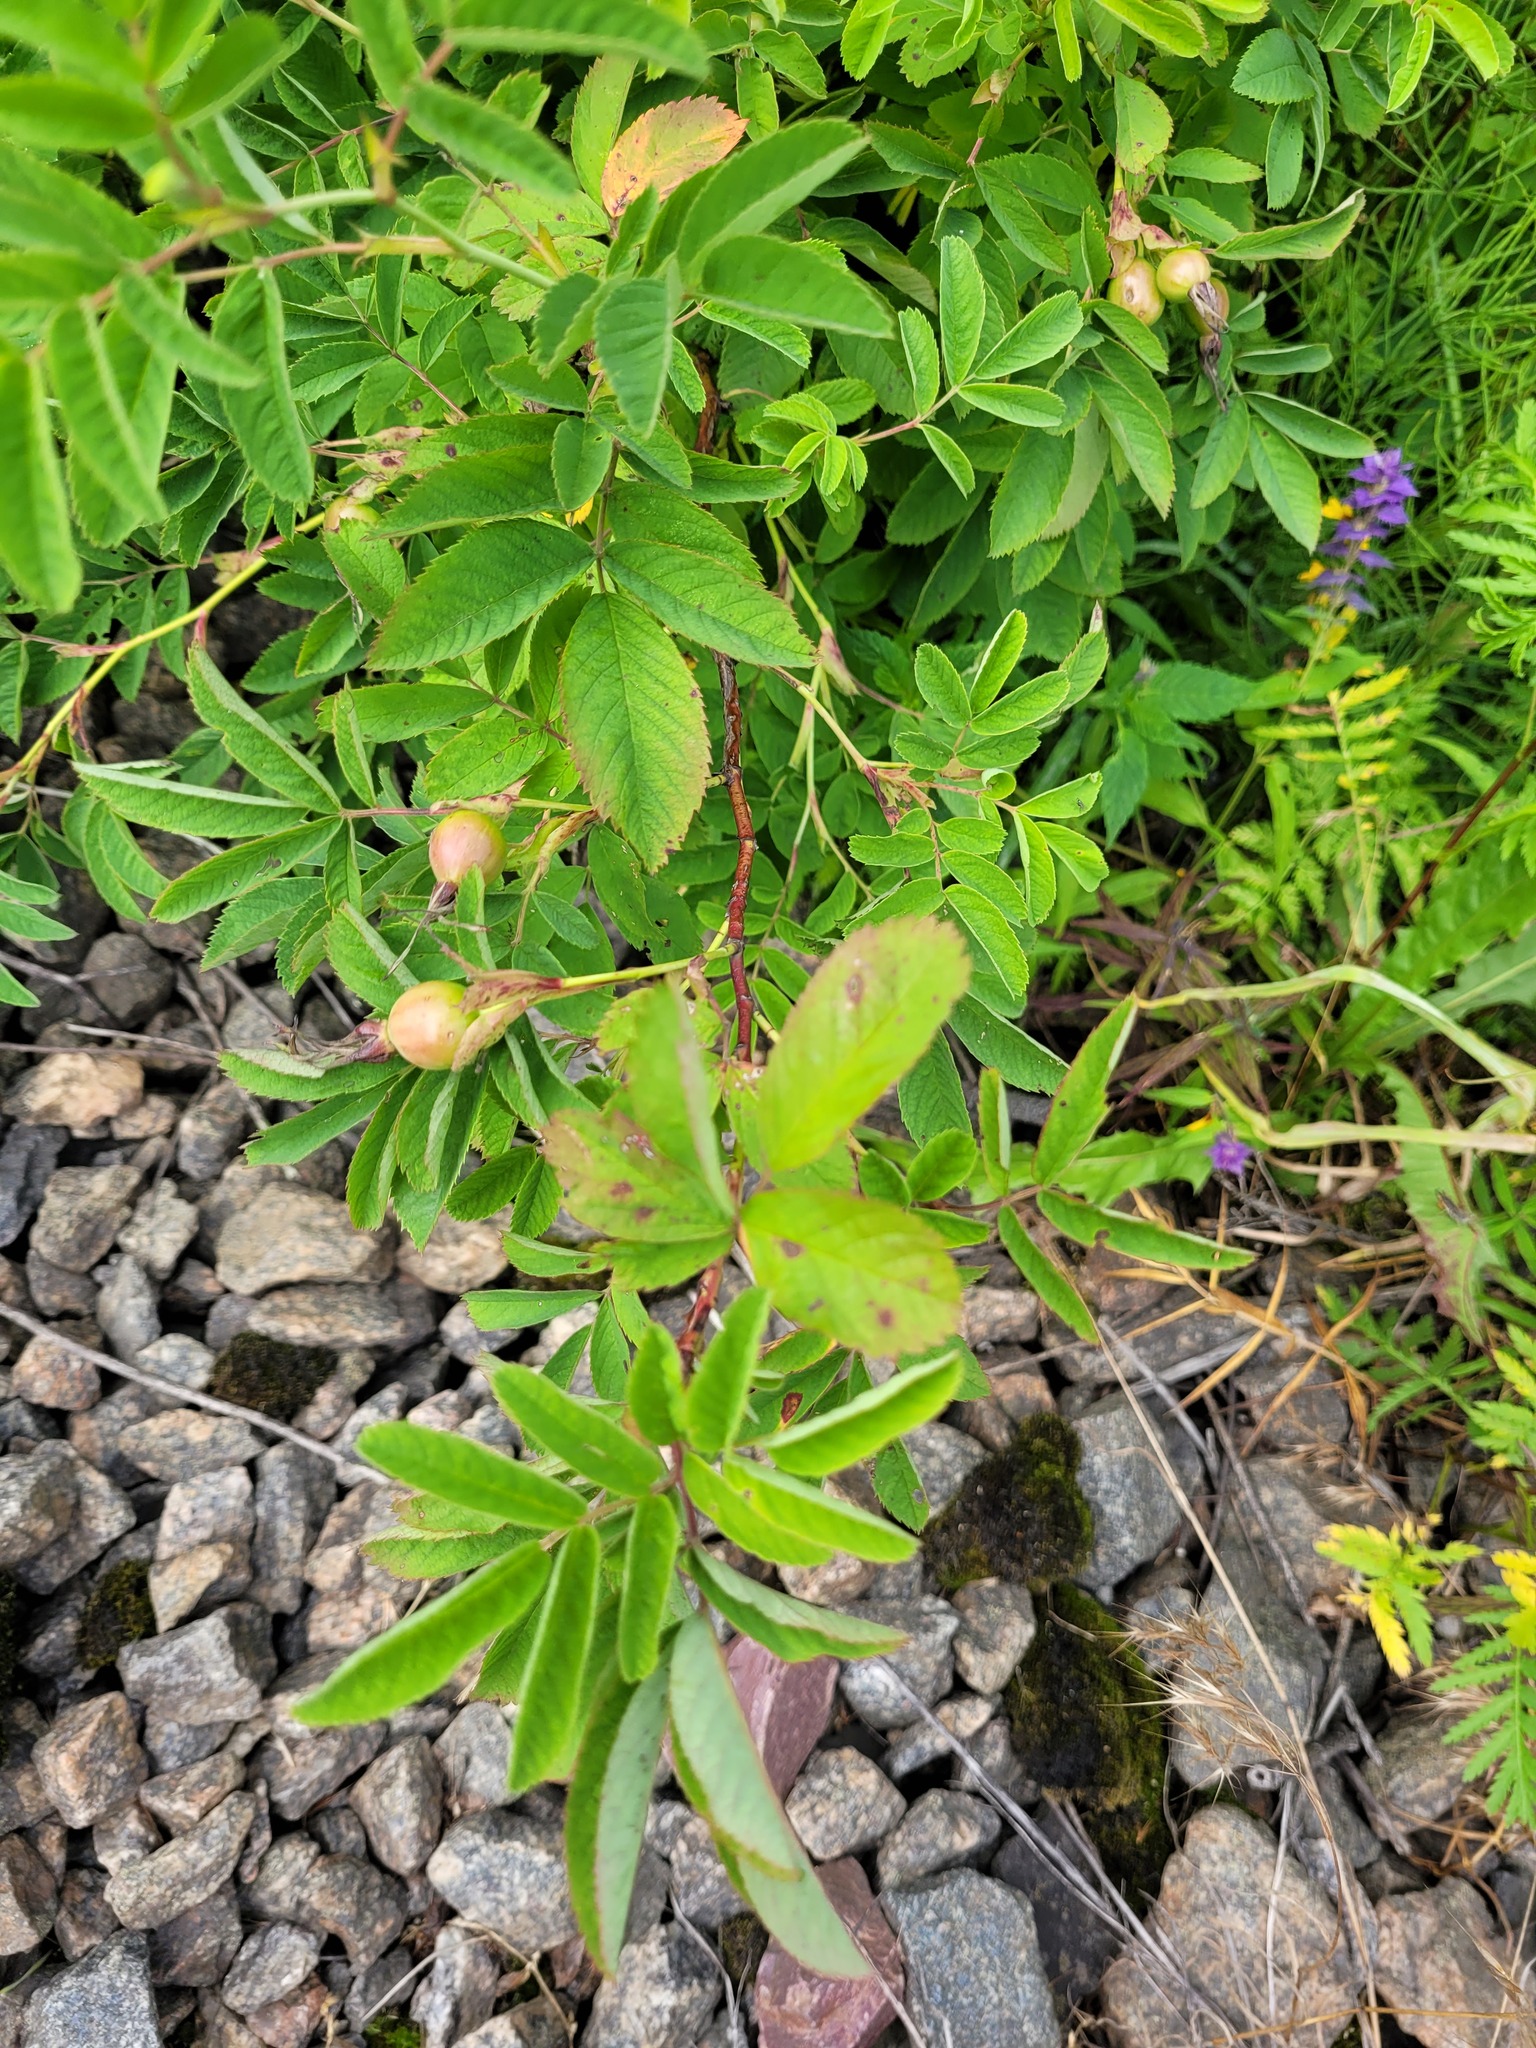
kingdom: Plantae
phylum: Tracheophyta
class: Magnoliopsida
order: Rosales
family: Rosaceae
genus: Rosa
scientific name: Rosa majalis
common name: Cinnamon rose
